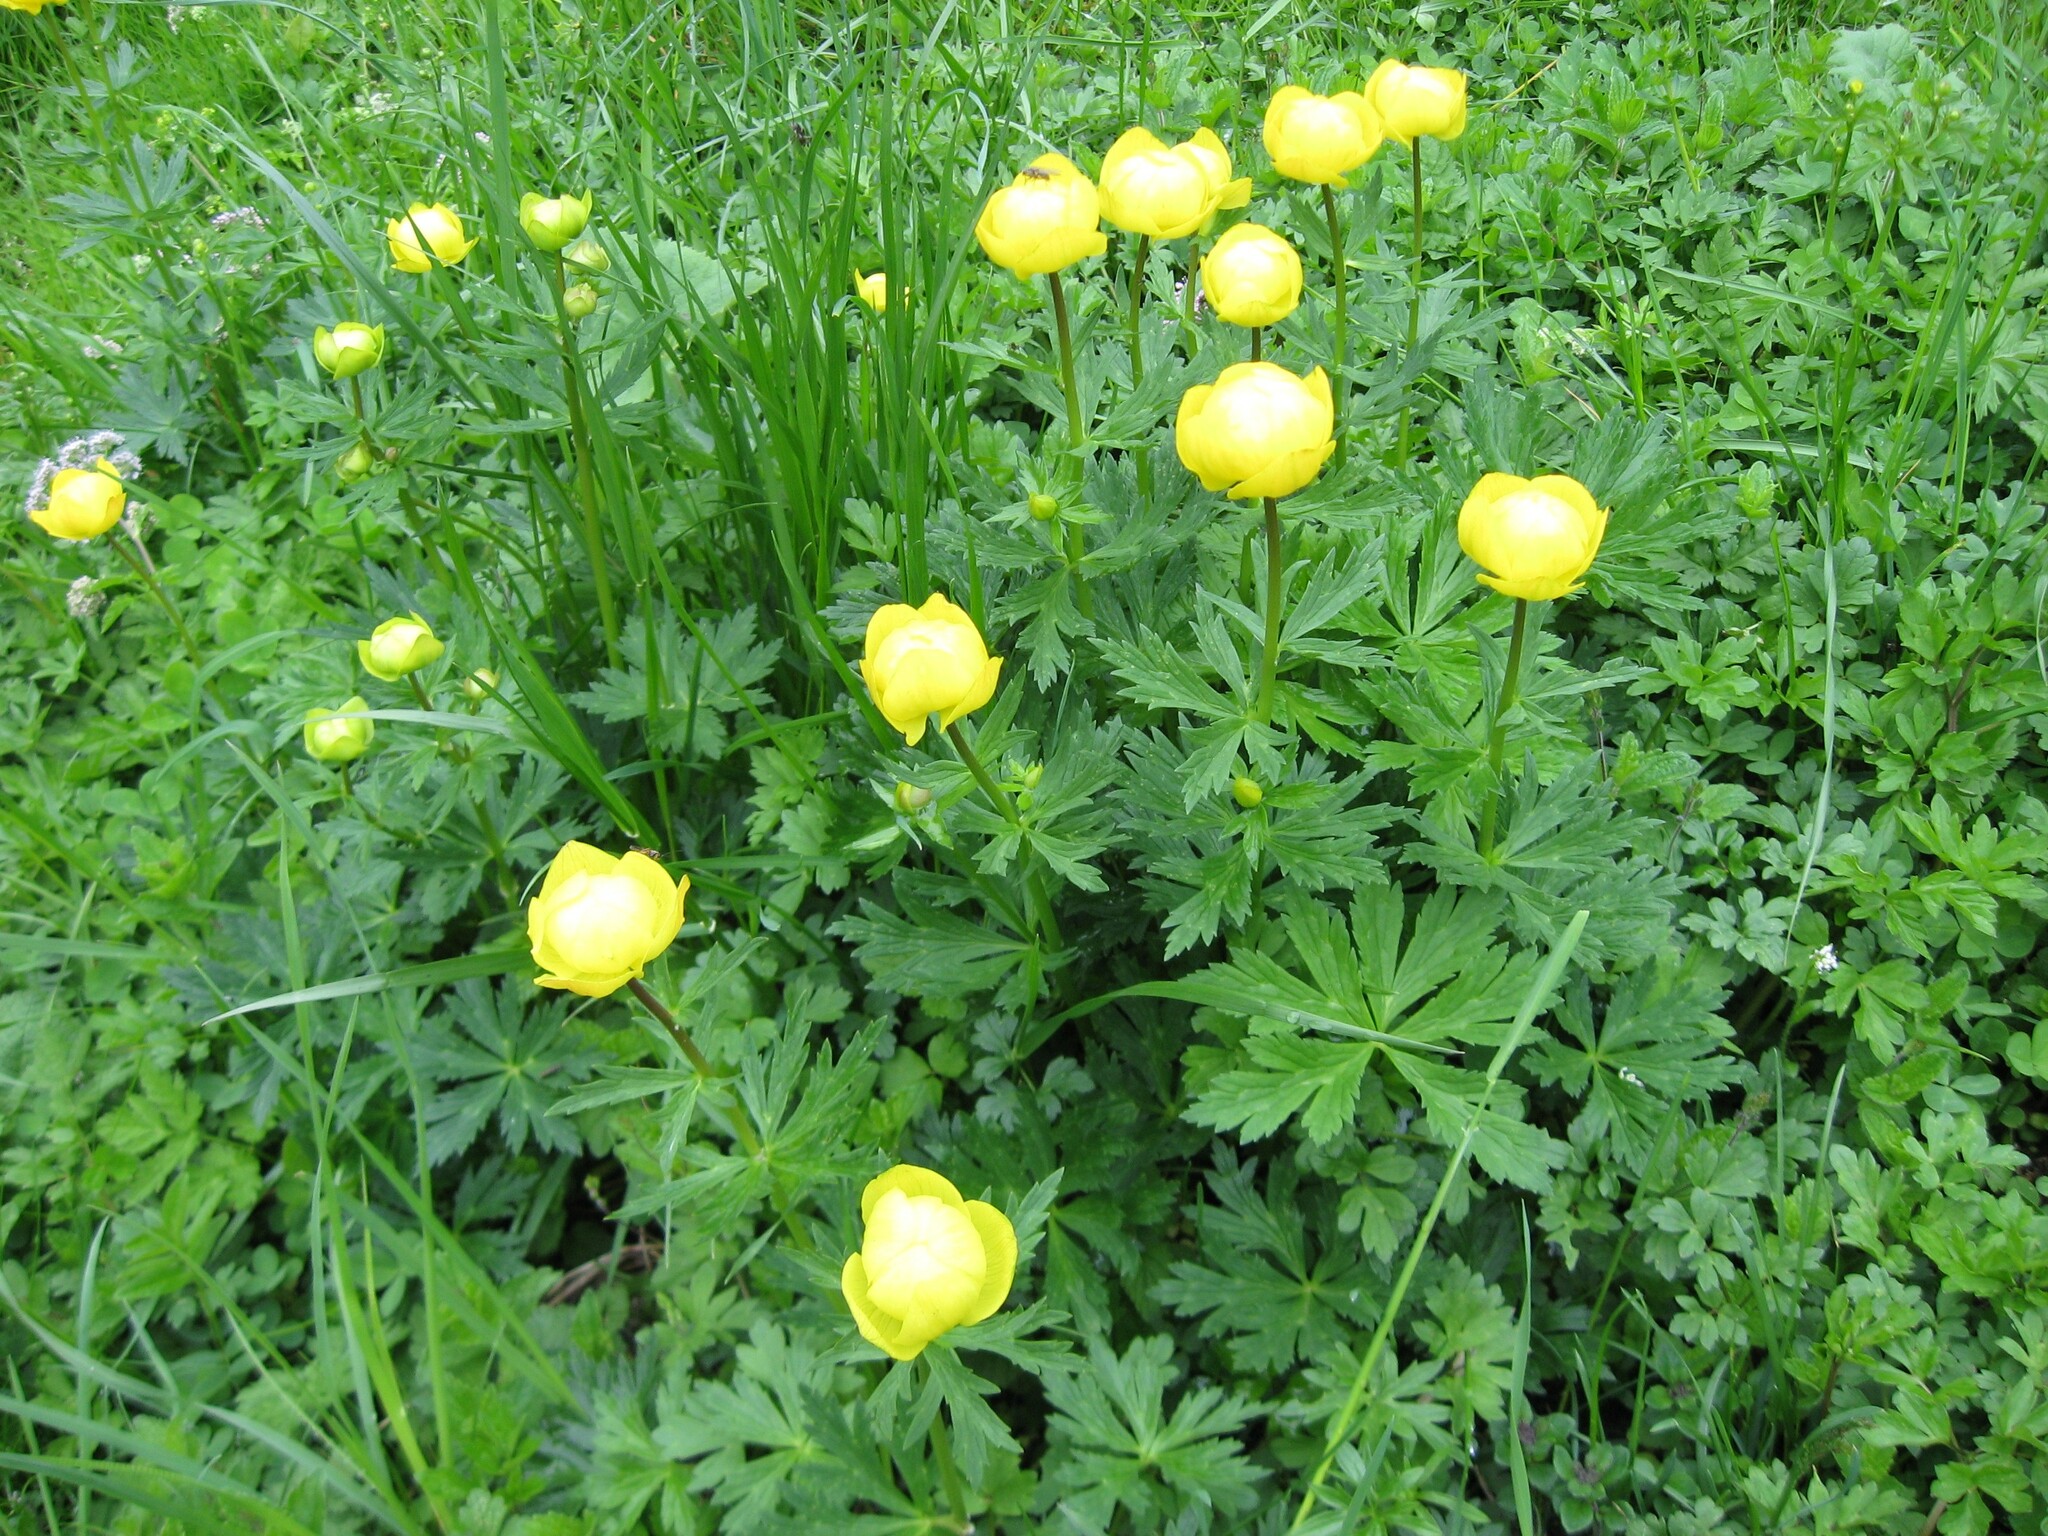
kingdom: Plantae
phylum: Tracheophyta
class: Magnoliopsida
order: Ranunculales
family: Ranunculaceae
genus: Trollius
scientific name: Trollius europaeus
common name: European globeflower
